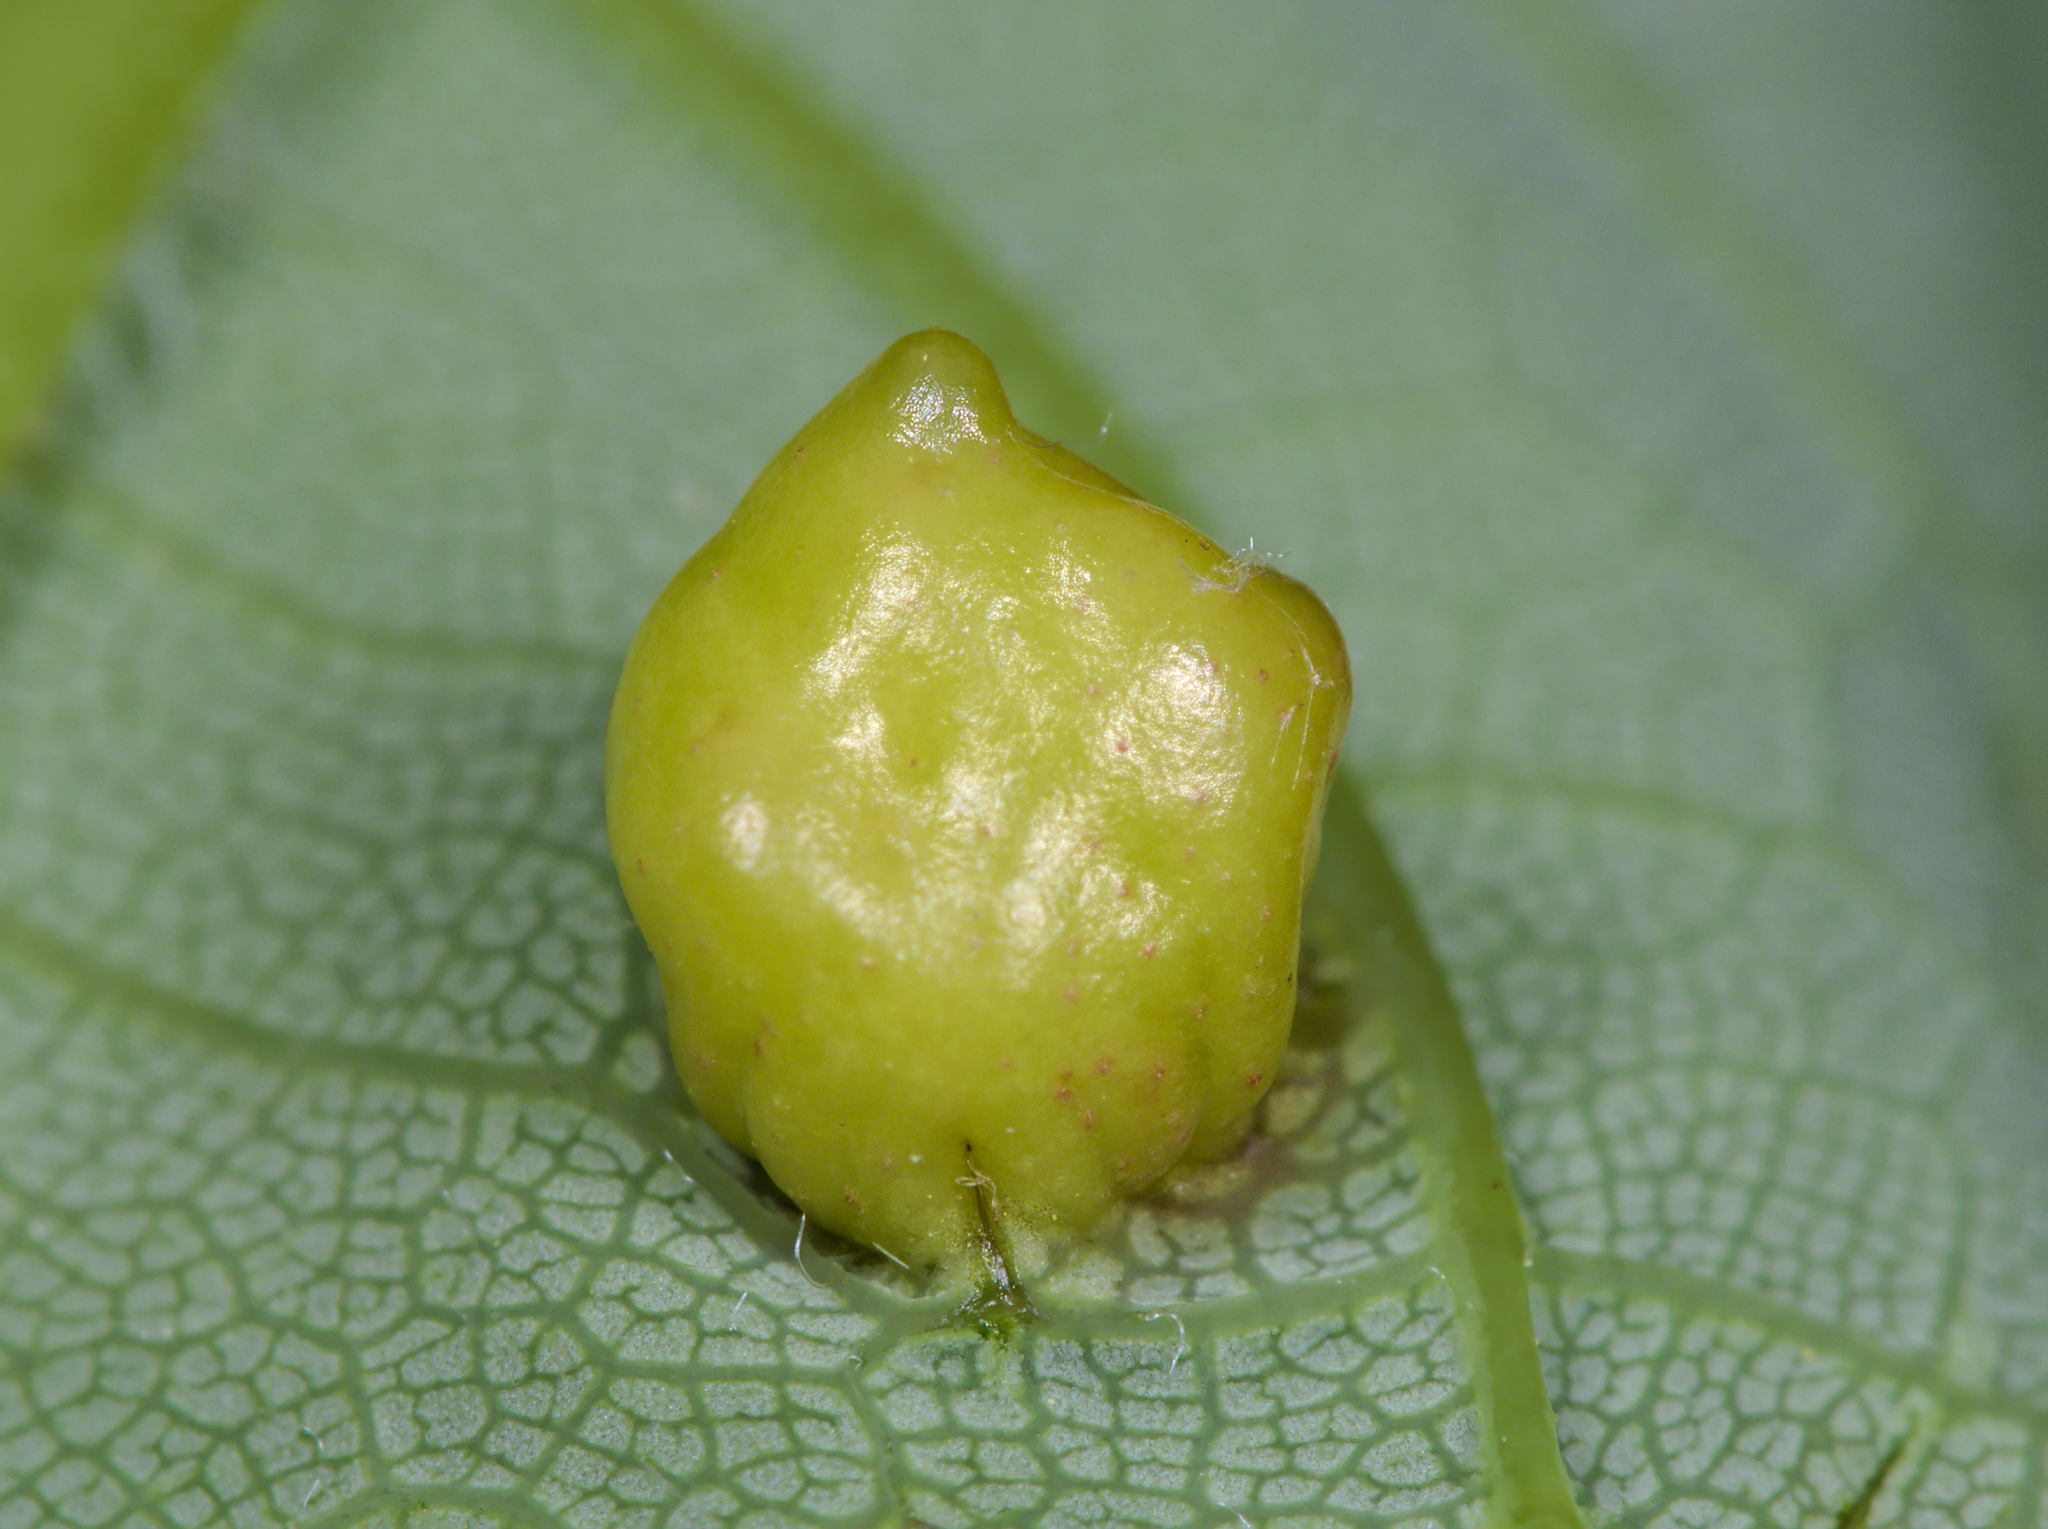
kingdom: Animalia
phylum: Arthropoda
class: Insecta
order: Hymenoptera
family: Eulophidae
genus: Dichatomus
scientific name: Dichatomus acerinus
